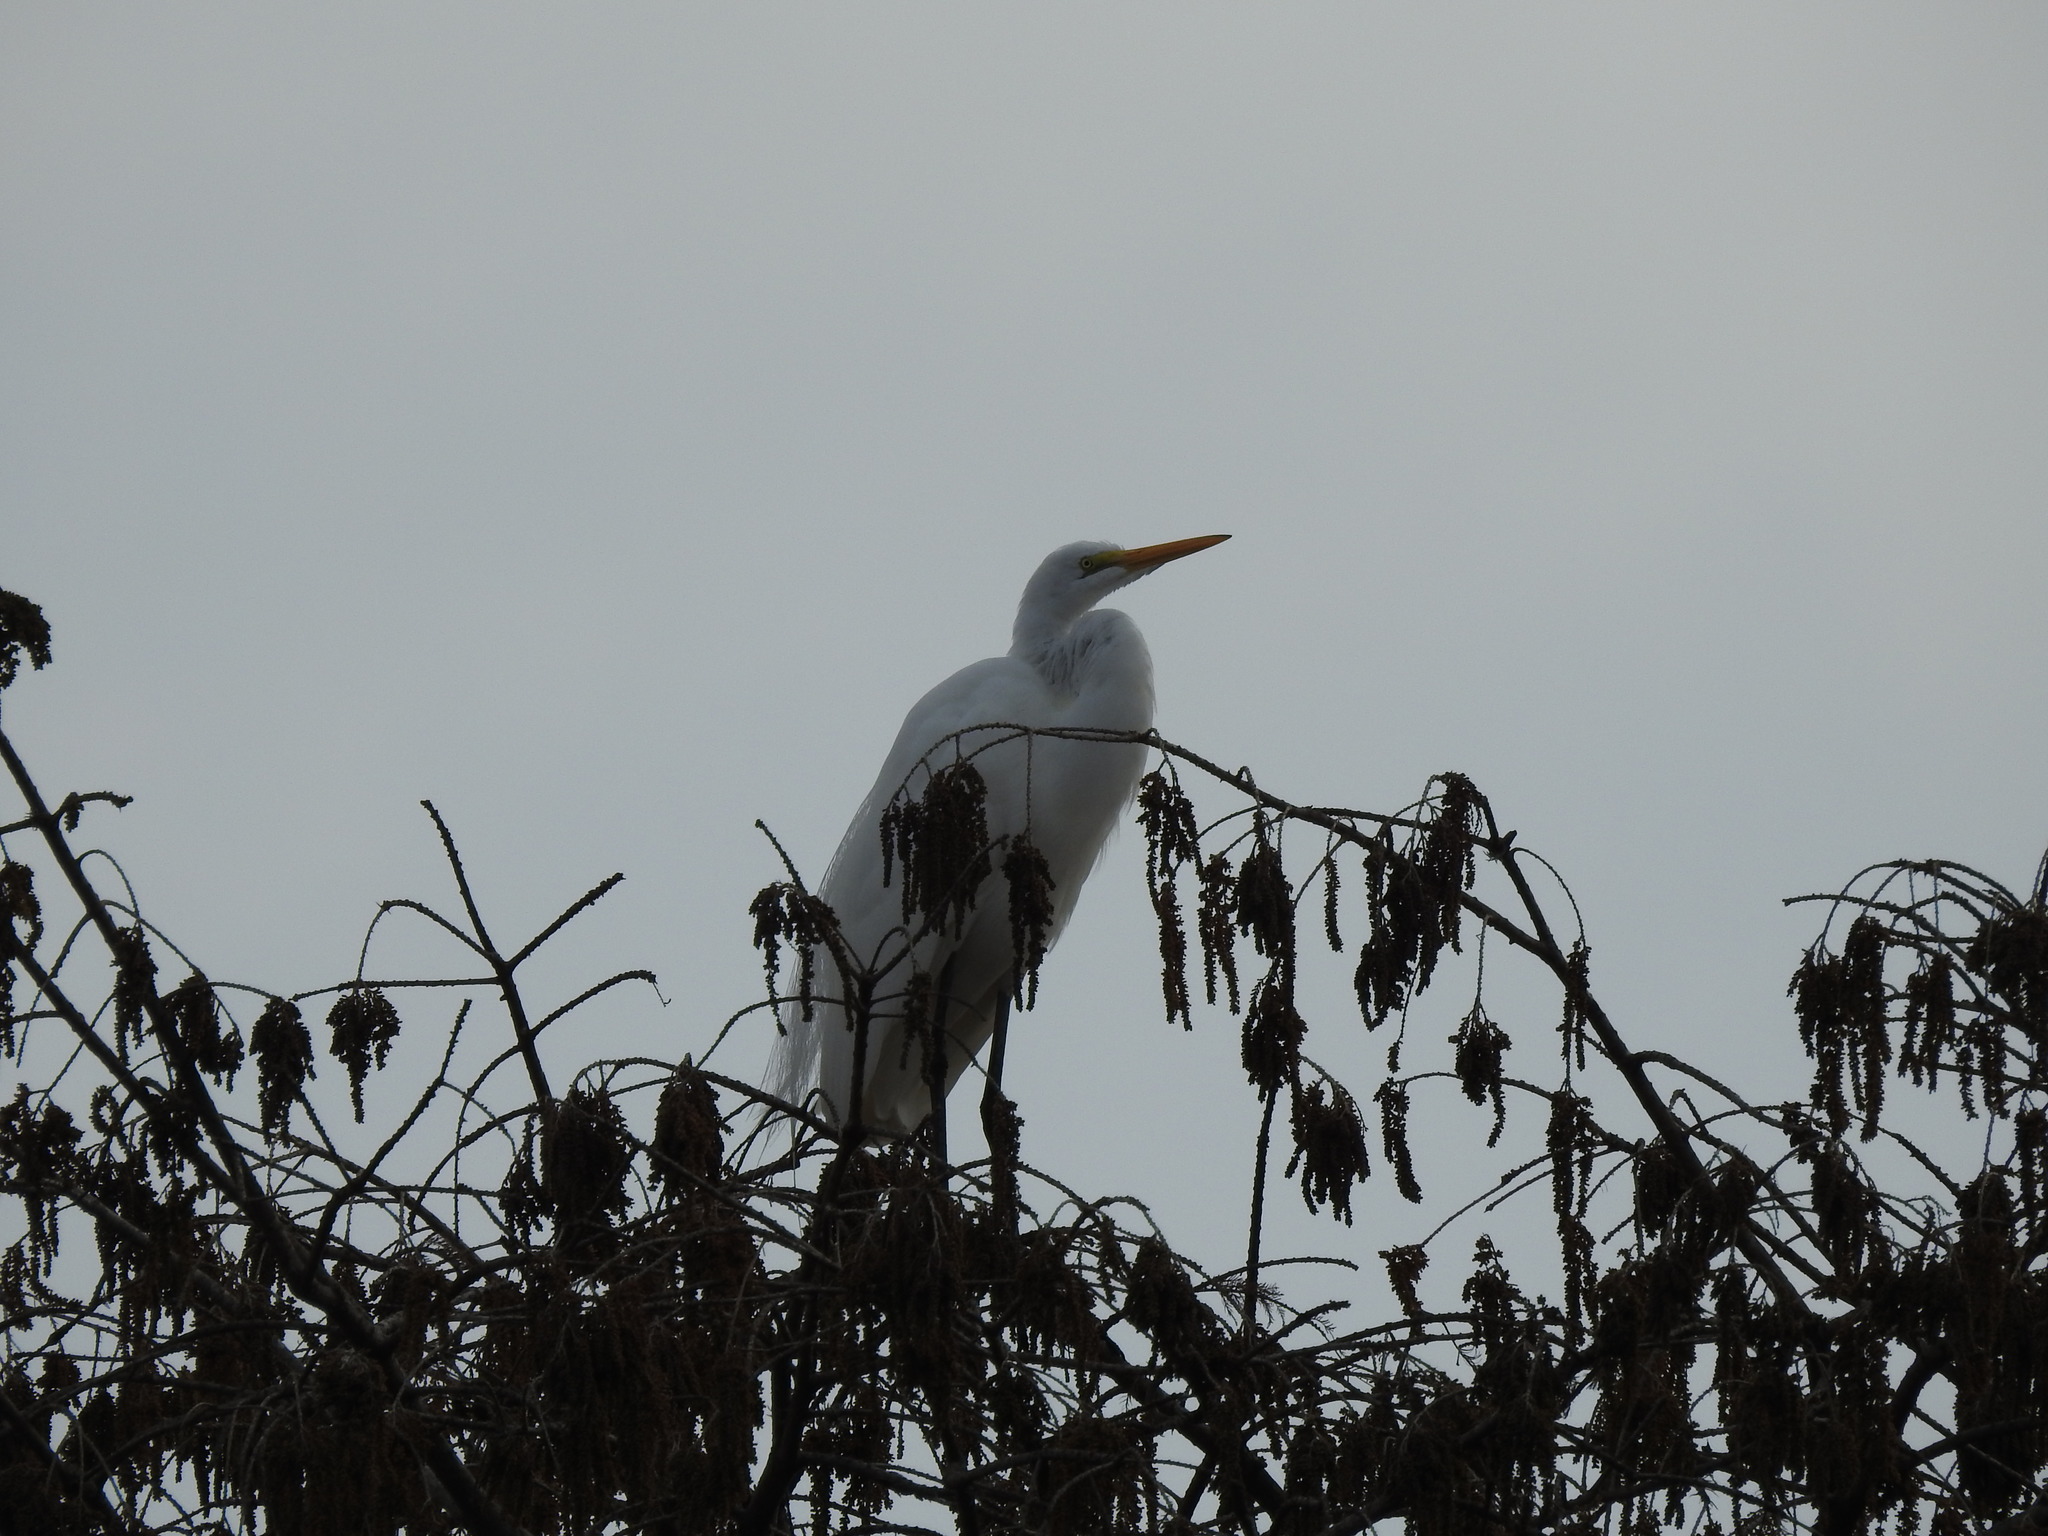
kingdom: Animalia
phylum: Chordata
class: Aves
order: Pelecaniformes
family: Ardeidae
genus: Ardea
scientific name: Ardea alba
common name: Great egret
